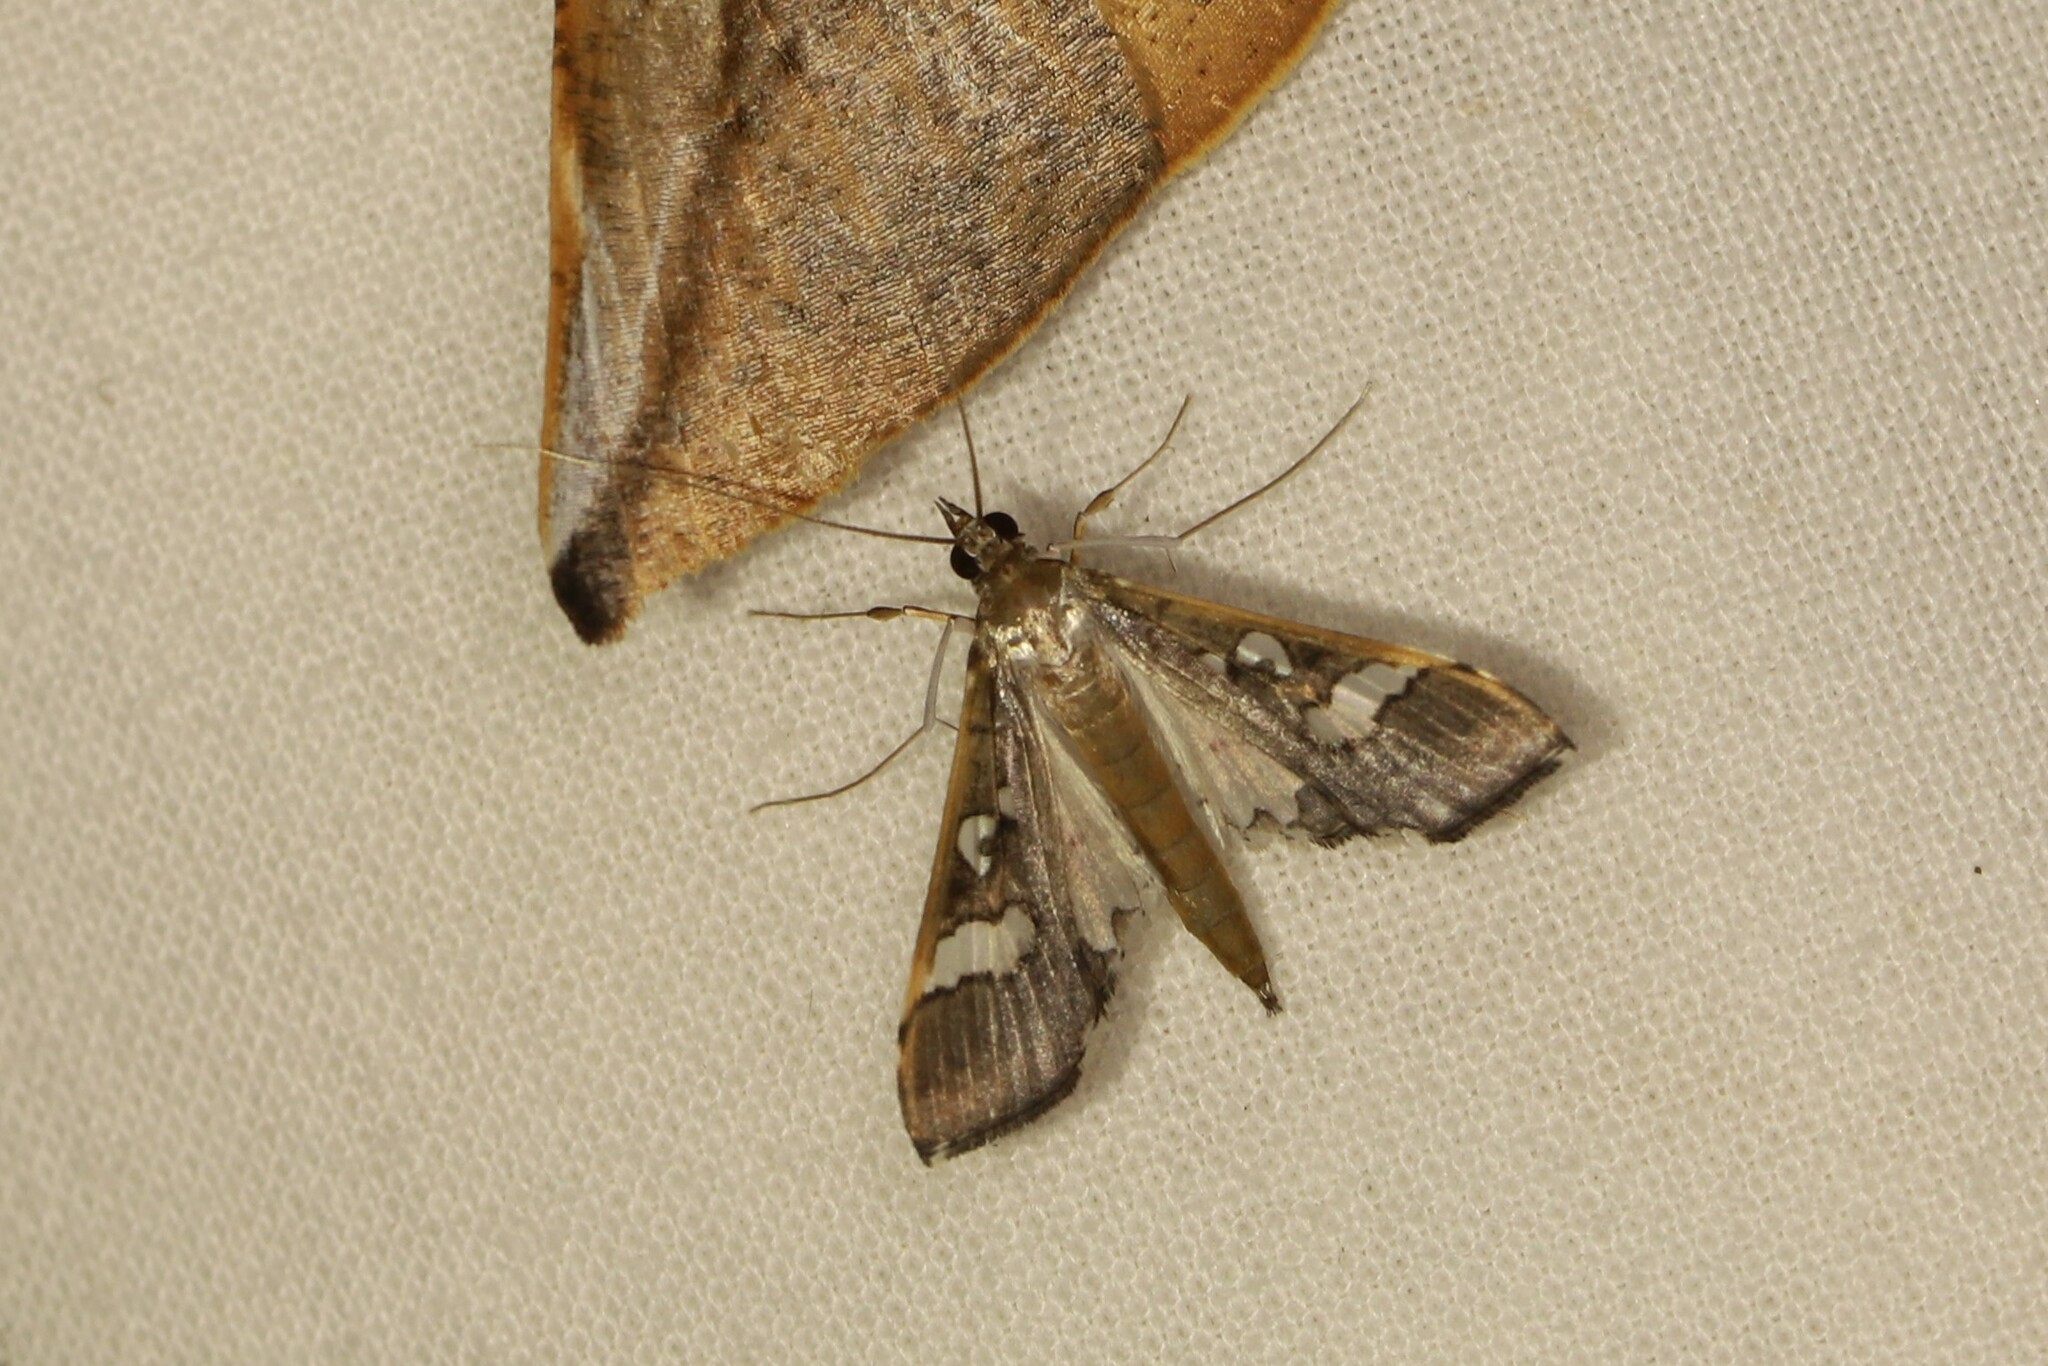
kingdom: Animalia
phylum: Arthropoda
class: Insecta
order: Lepidoptera
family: Crambidae
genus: Maruca
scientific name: Maruca vitrata
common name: Maruca pod borer
